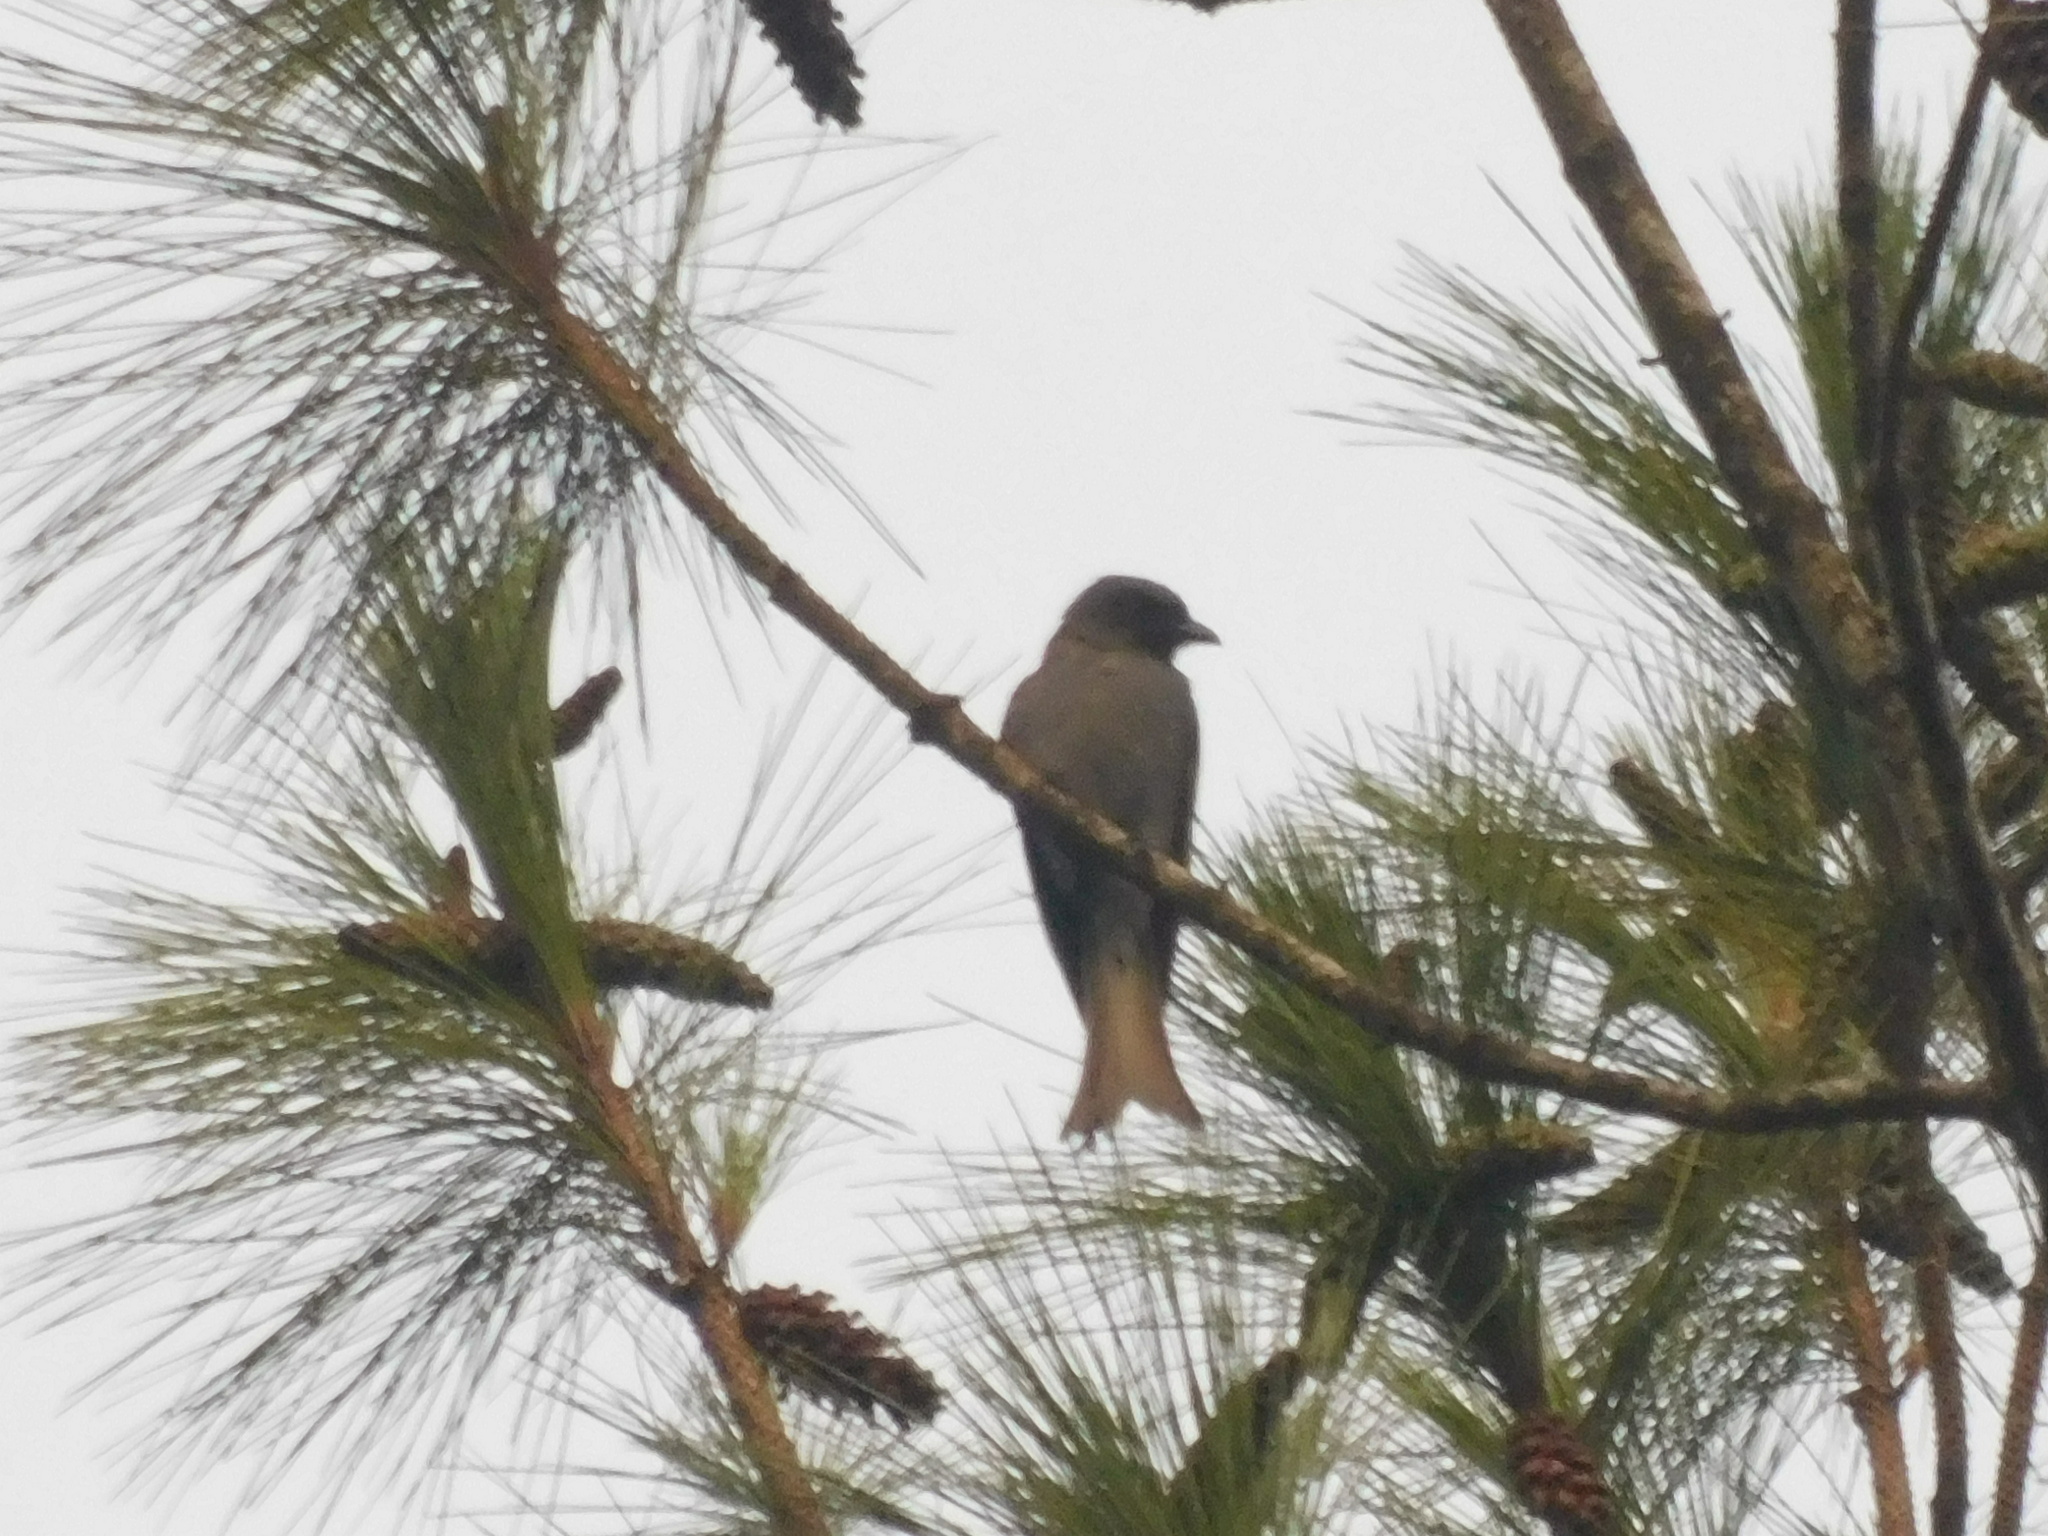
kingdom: Animalia
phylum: Chordata
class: Aves
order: Passeriformes
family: Dicruridae
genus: Dicrurus
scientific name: Dicrurus leucophaeus
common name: Ashy drongo
